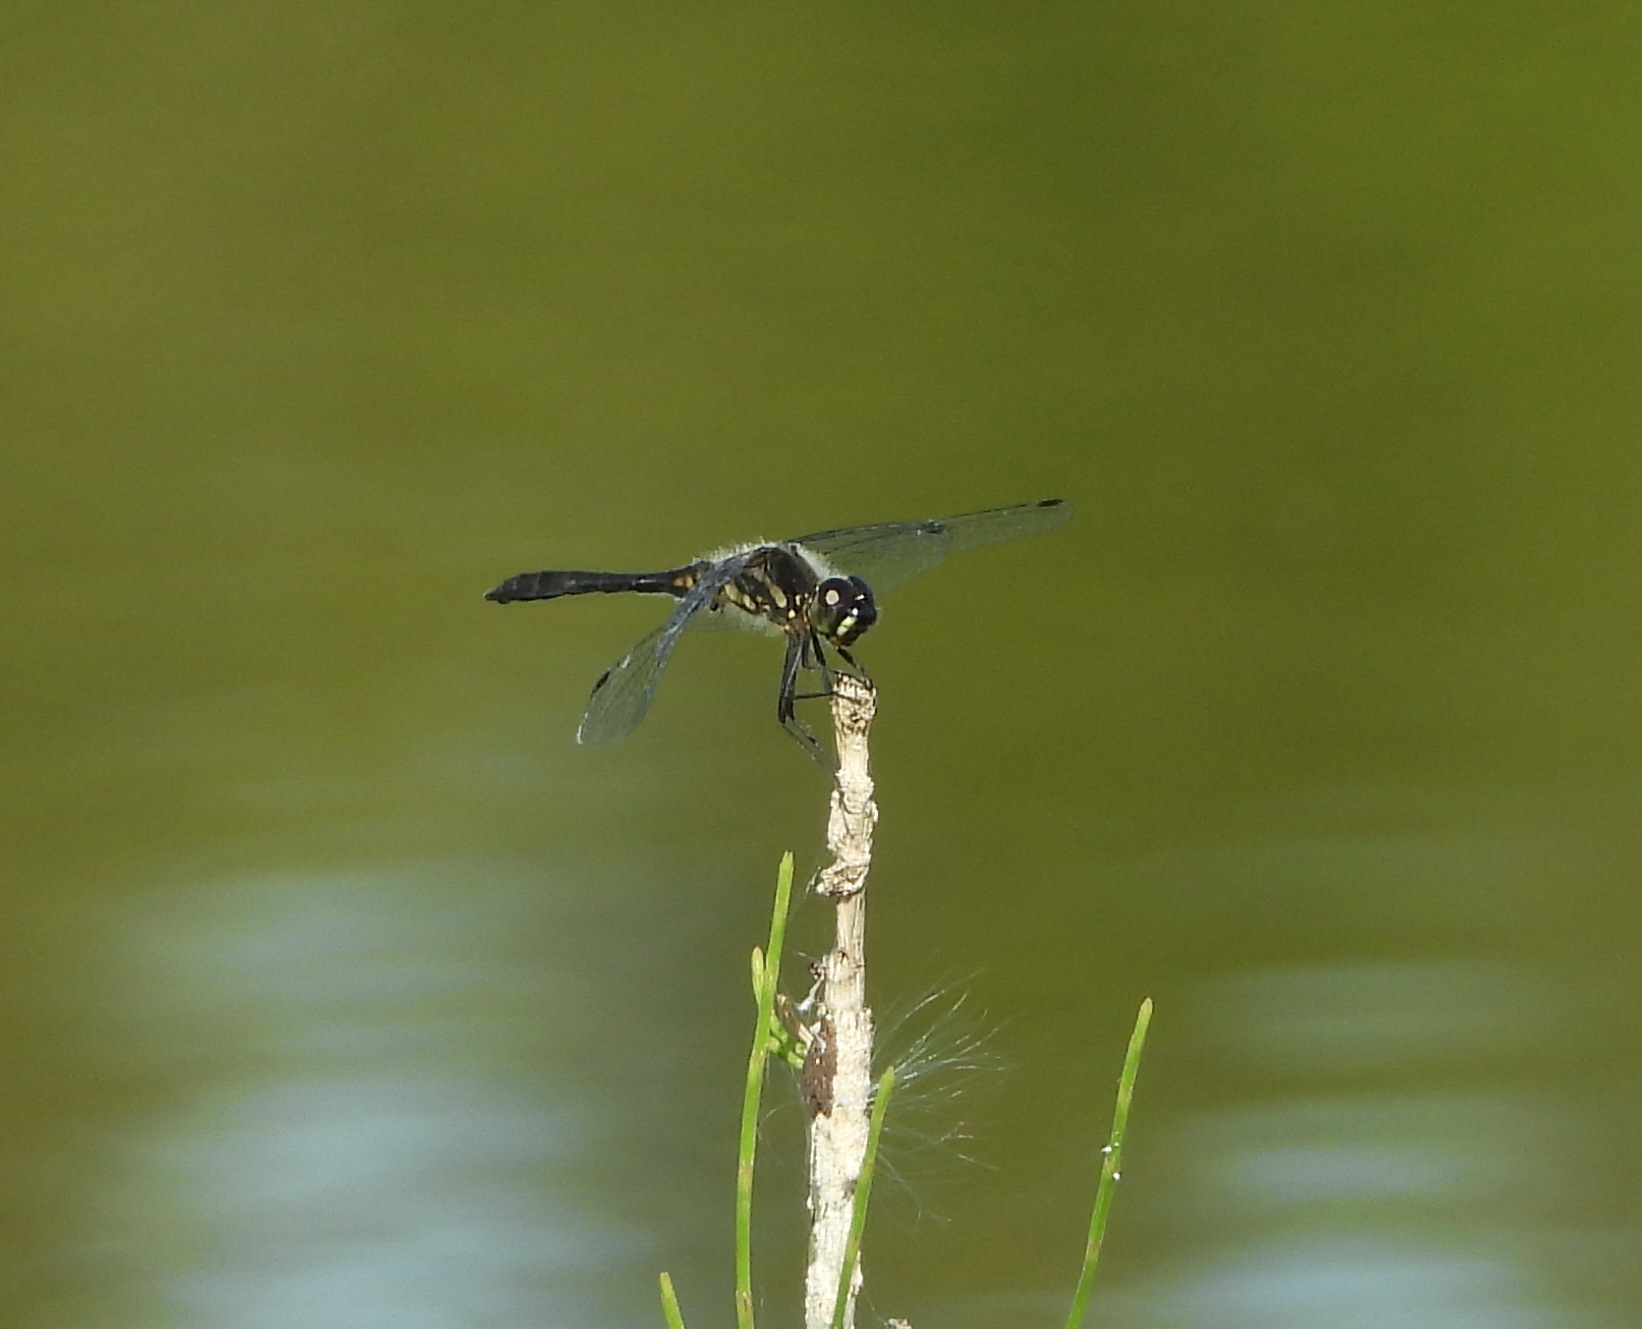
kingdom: Animalia
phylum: Arthropoda
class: Insecta
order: Odonata
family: Libellulidae
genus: Sympetrum
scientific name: Sympetrum danae
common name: Black darter
